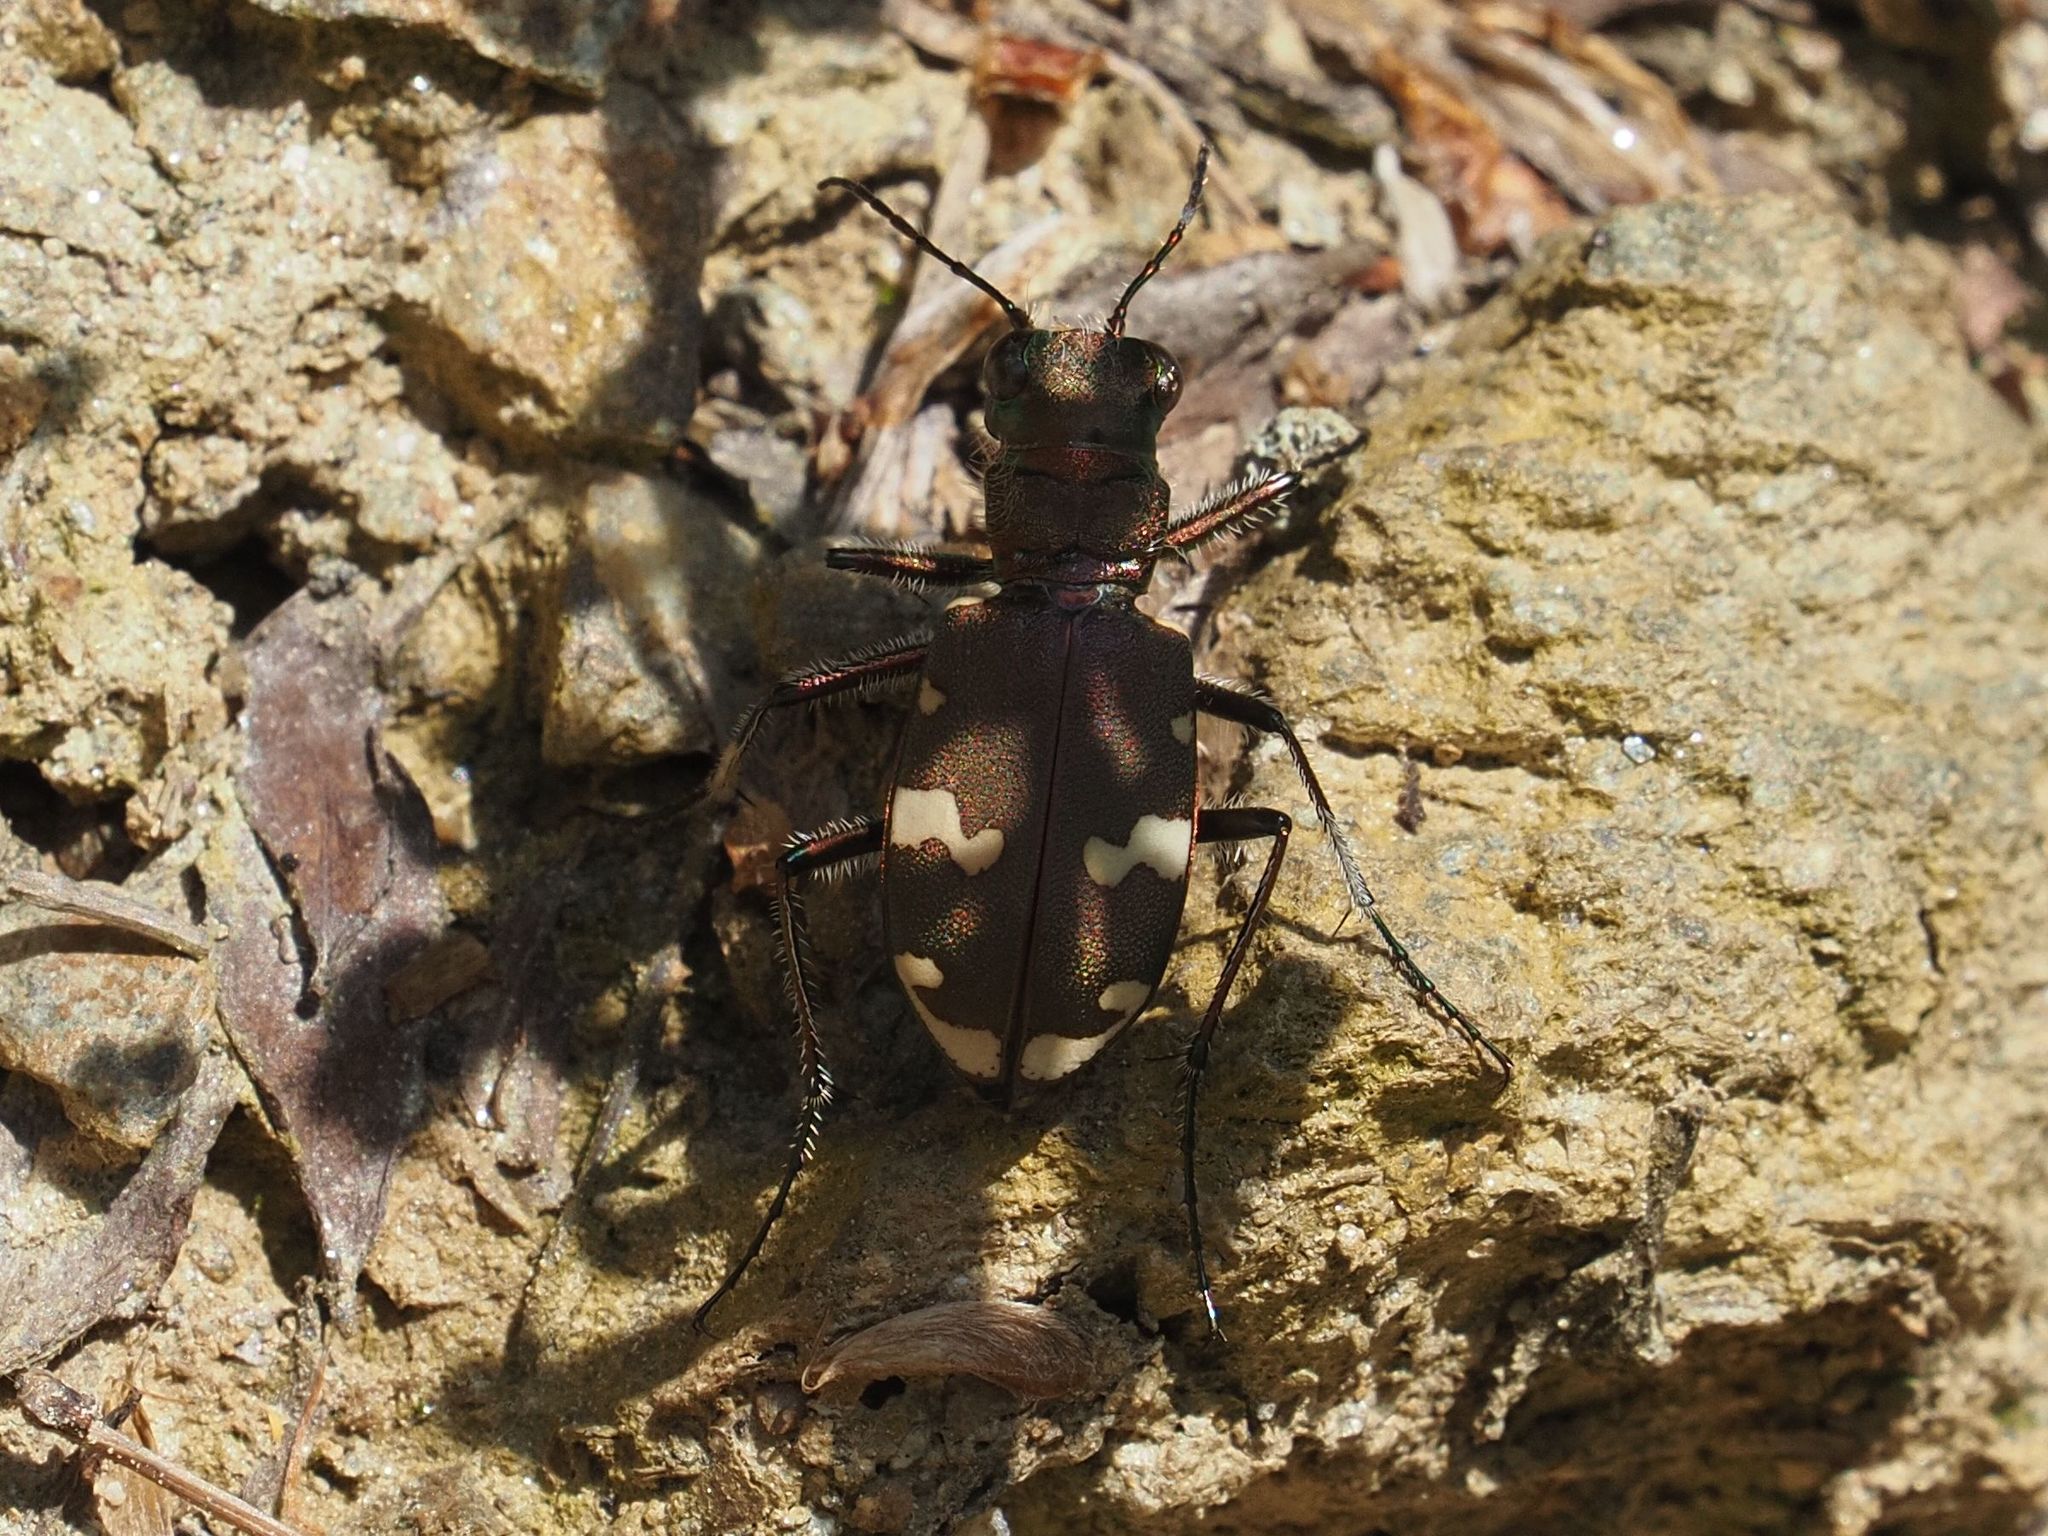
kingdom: Animalia
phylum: Arthropoda
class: Insecta
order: Coleoptera
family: Carabidae
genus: Cicindela
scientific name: Cicindela sylvicola
